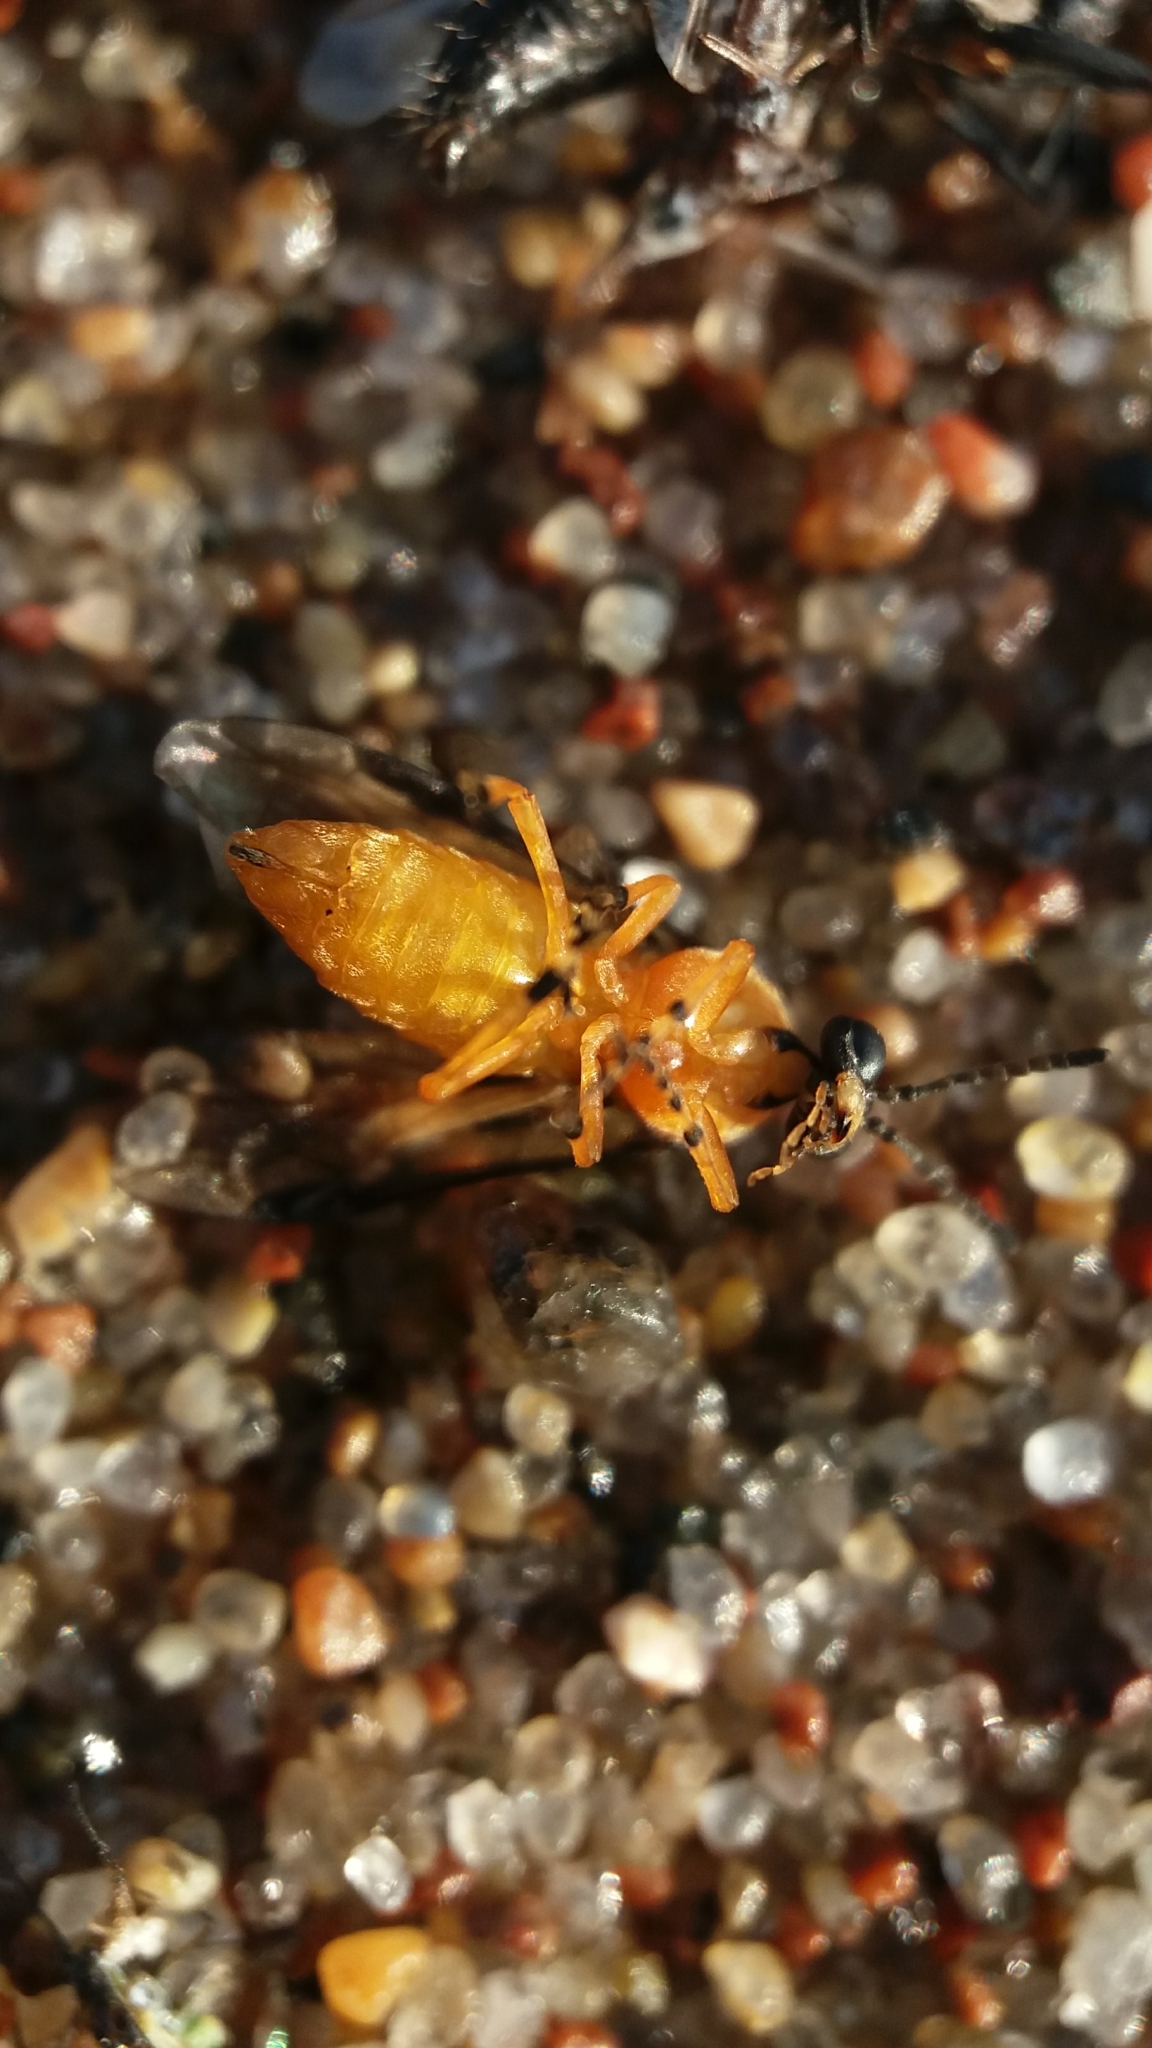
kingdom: Animalia
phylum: Arthropoda
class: Insecta
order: Hymenoptera
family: Tenthredinidae
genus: Athalia
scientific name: Athalia rosae
